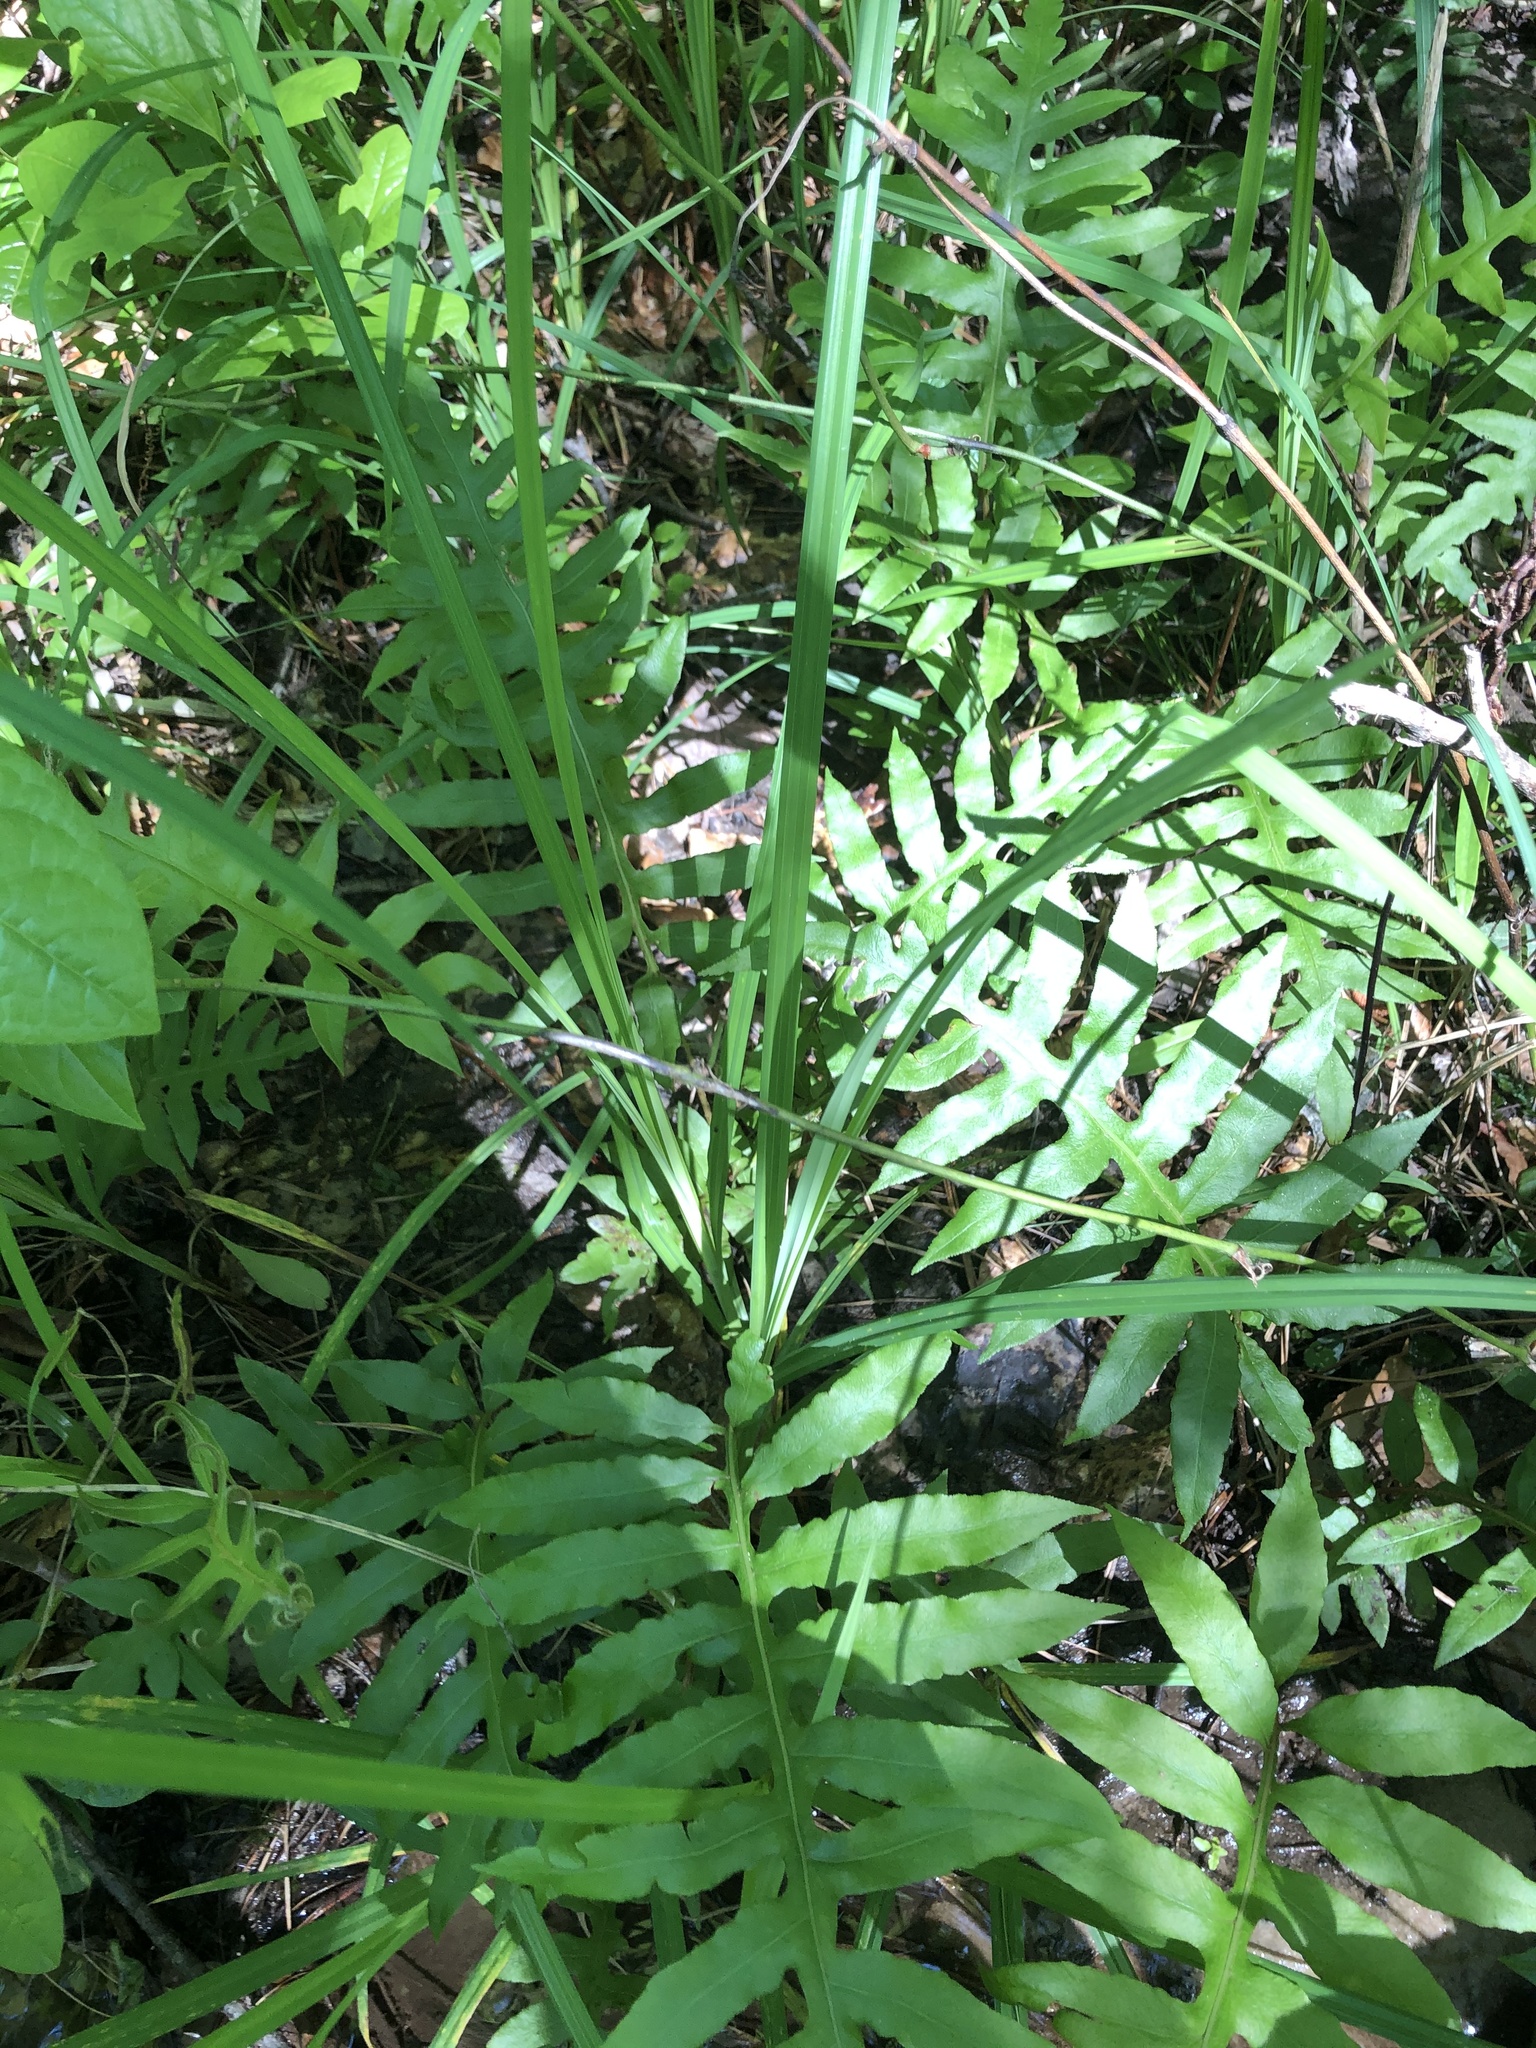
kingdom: Plantae
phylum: Tracheophyta
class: Liliopsida
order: Poales
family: Cyperaceae
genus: Carex
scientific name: Carex mitchelliana
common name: Mitchell's sedge
